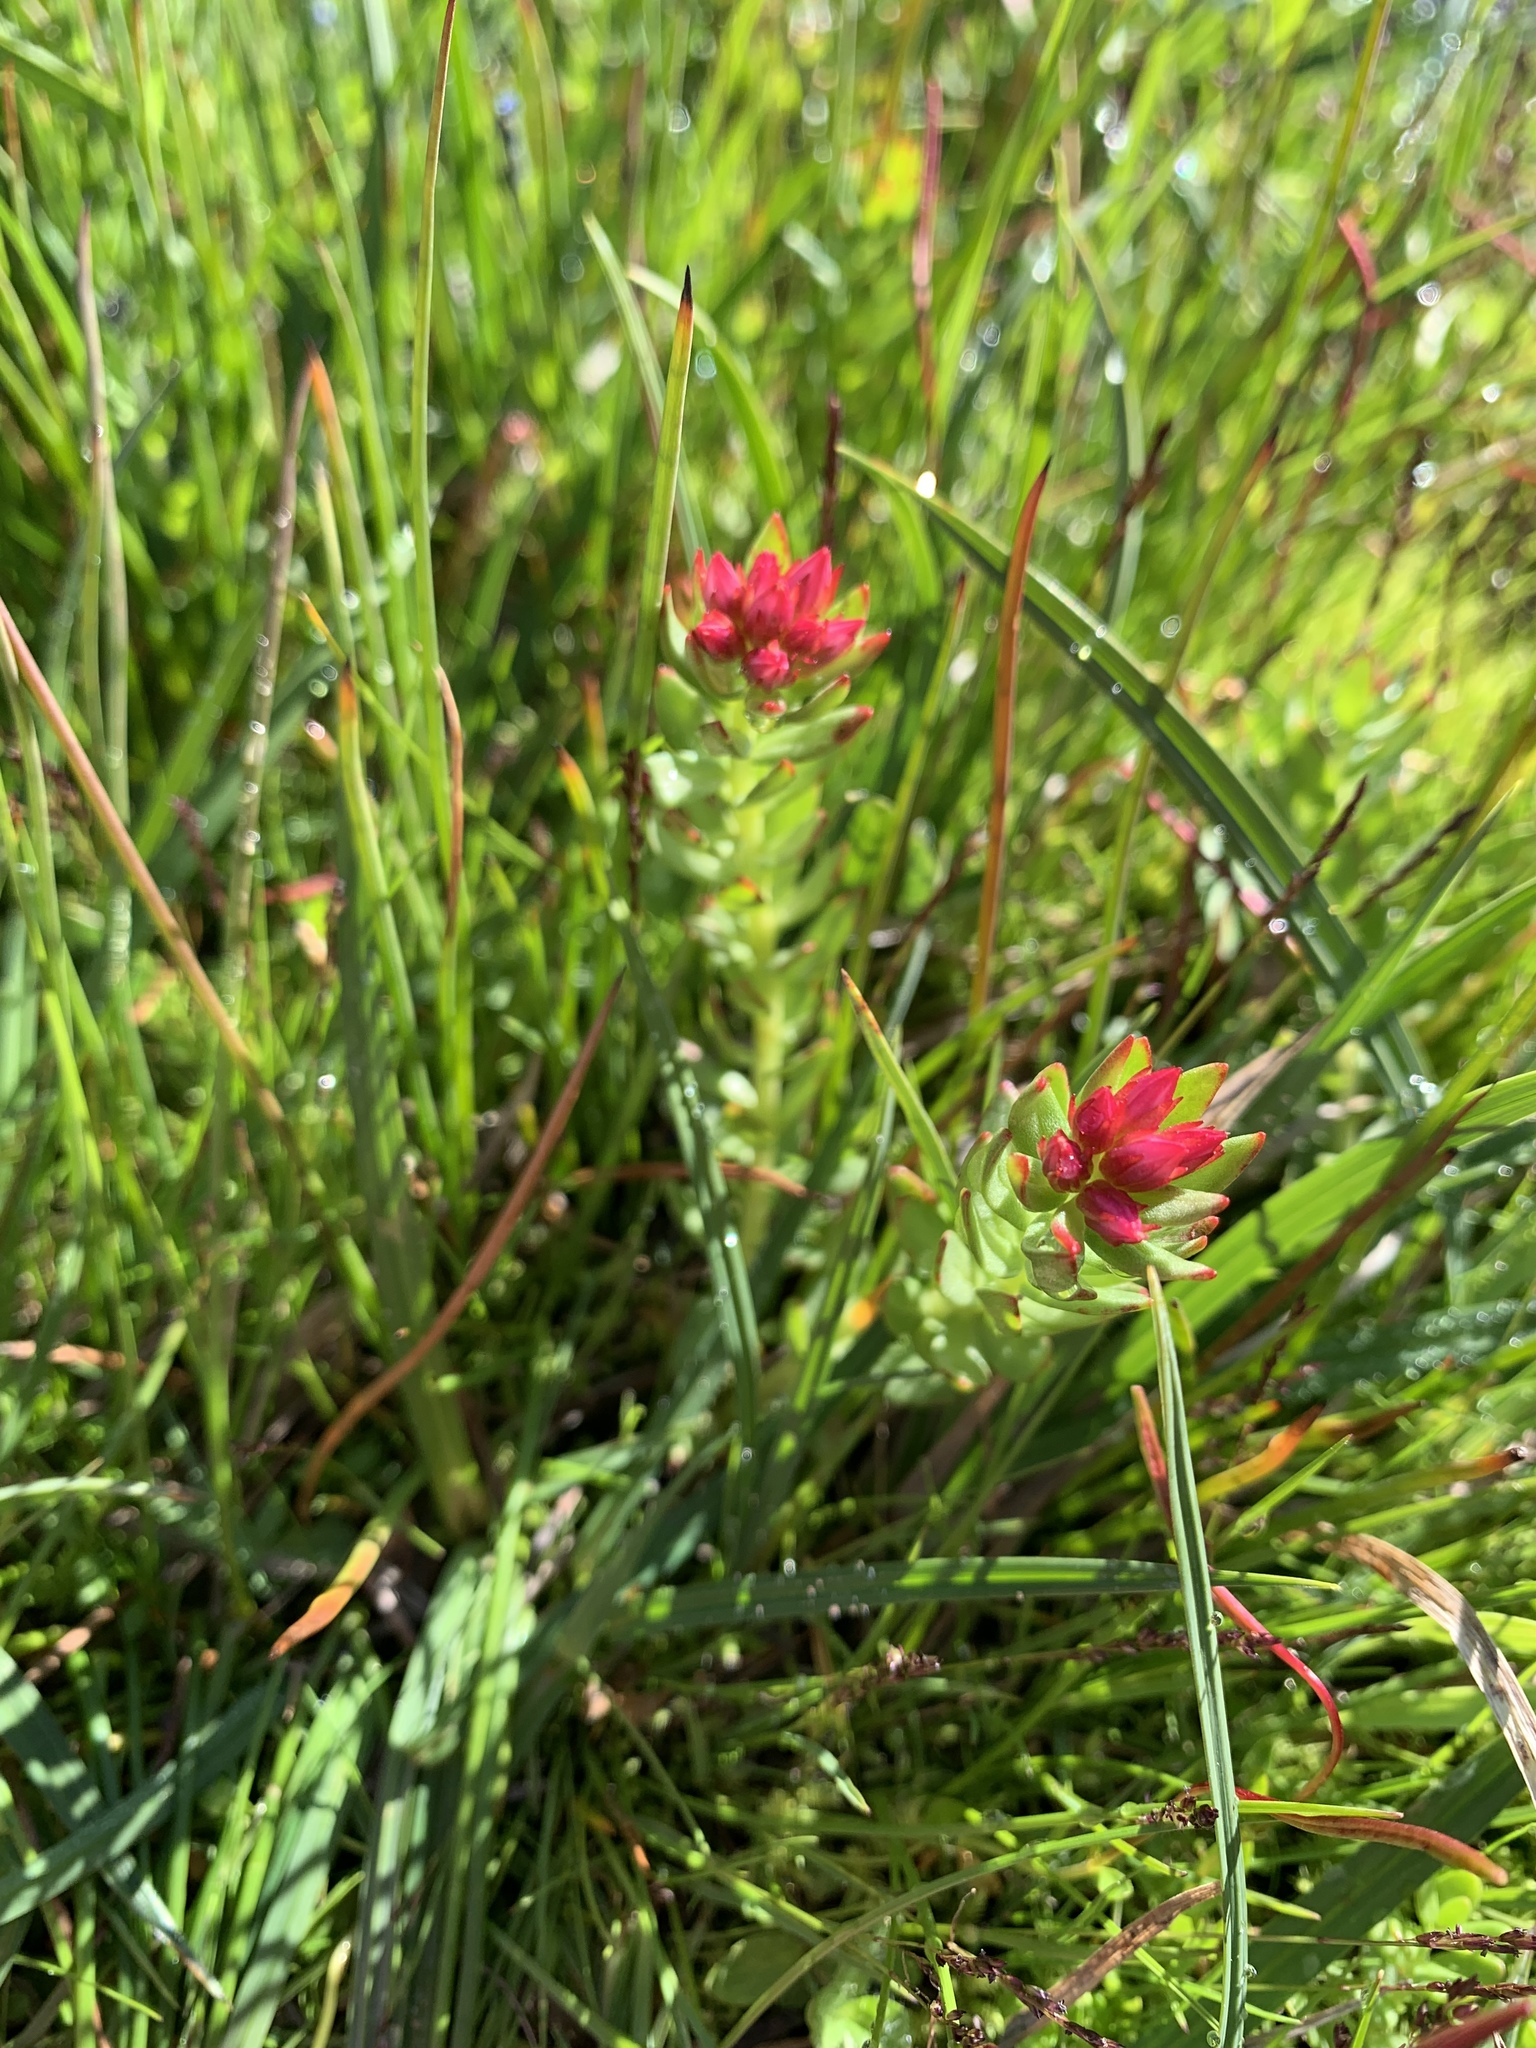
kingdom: Plantae
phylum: Tracheophyta
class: Magnoliopsida
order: Saxifragales
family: Crassulaceae
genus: Rhodiola
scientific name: Rhodiola rhodantha
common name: Red orpine
